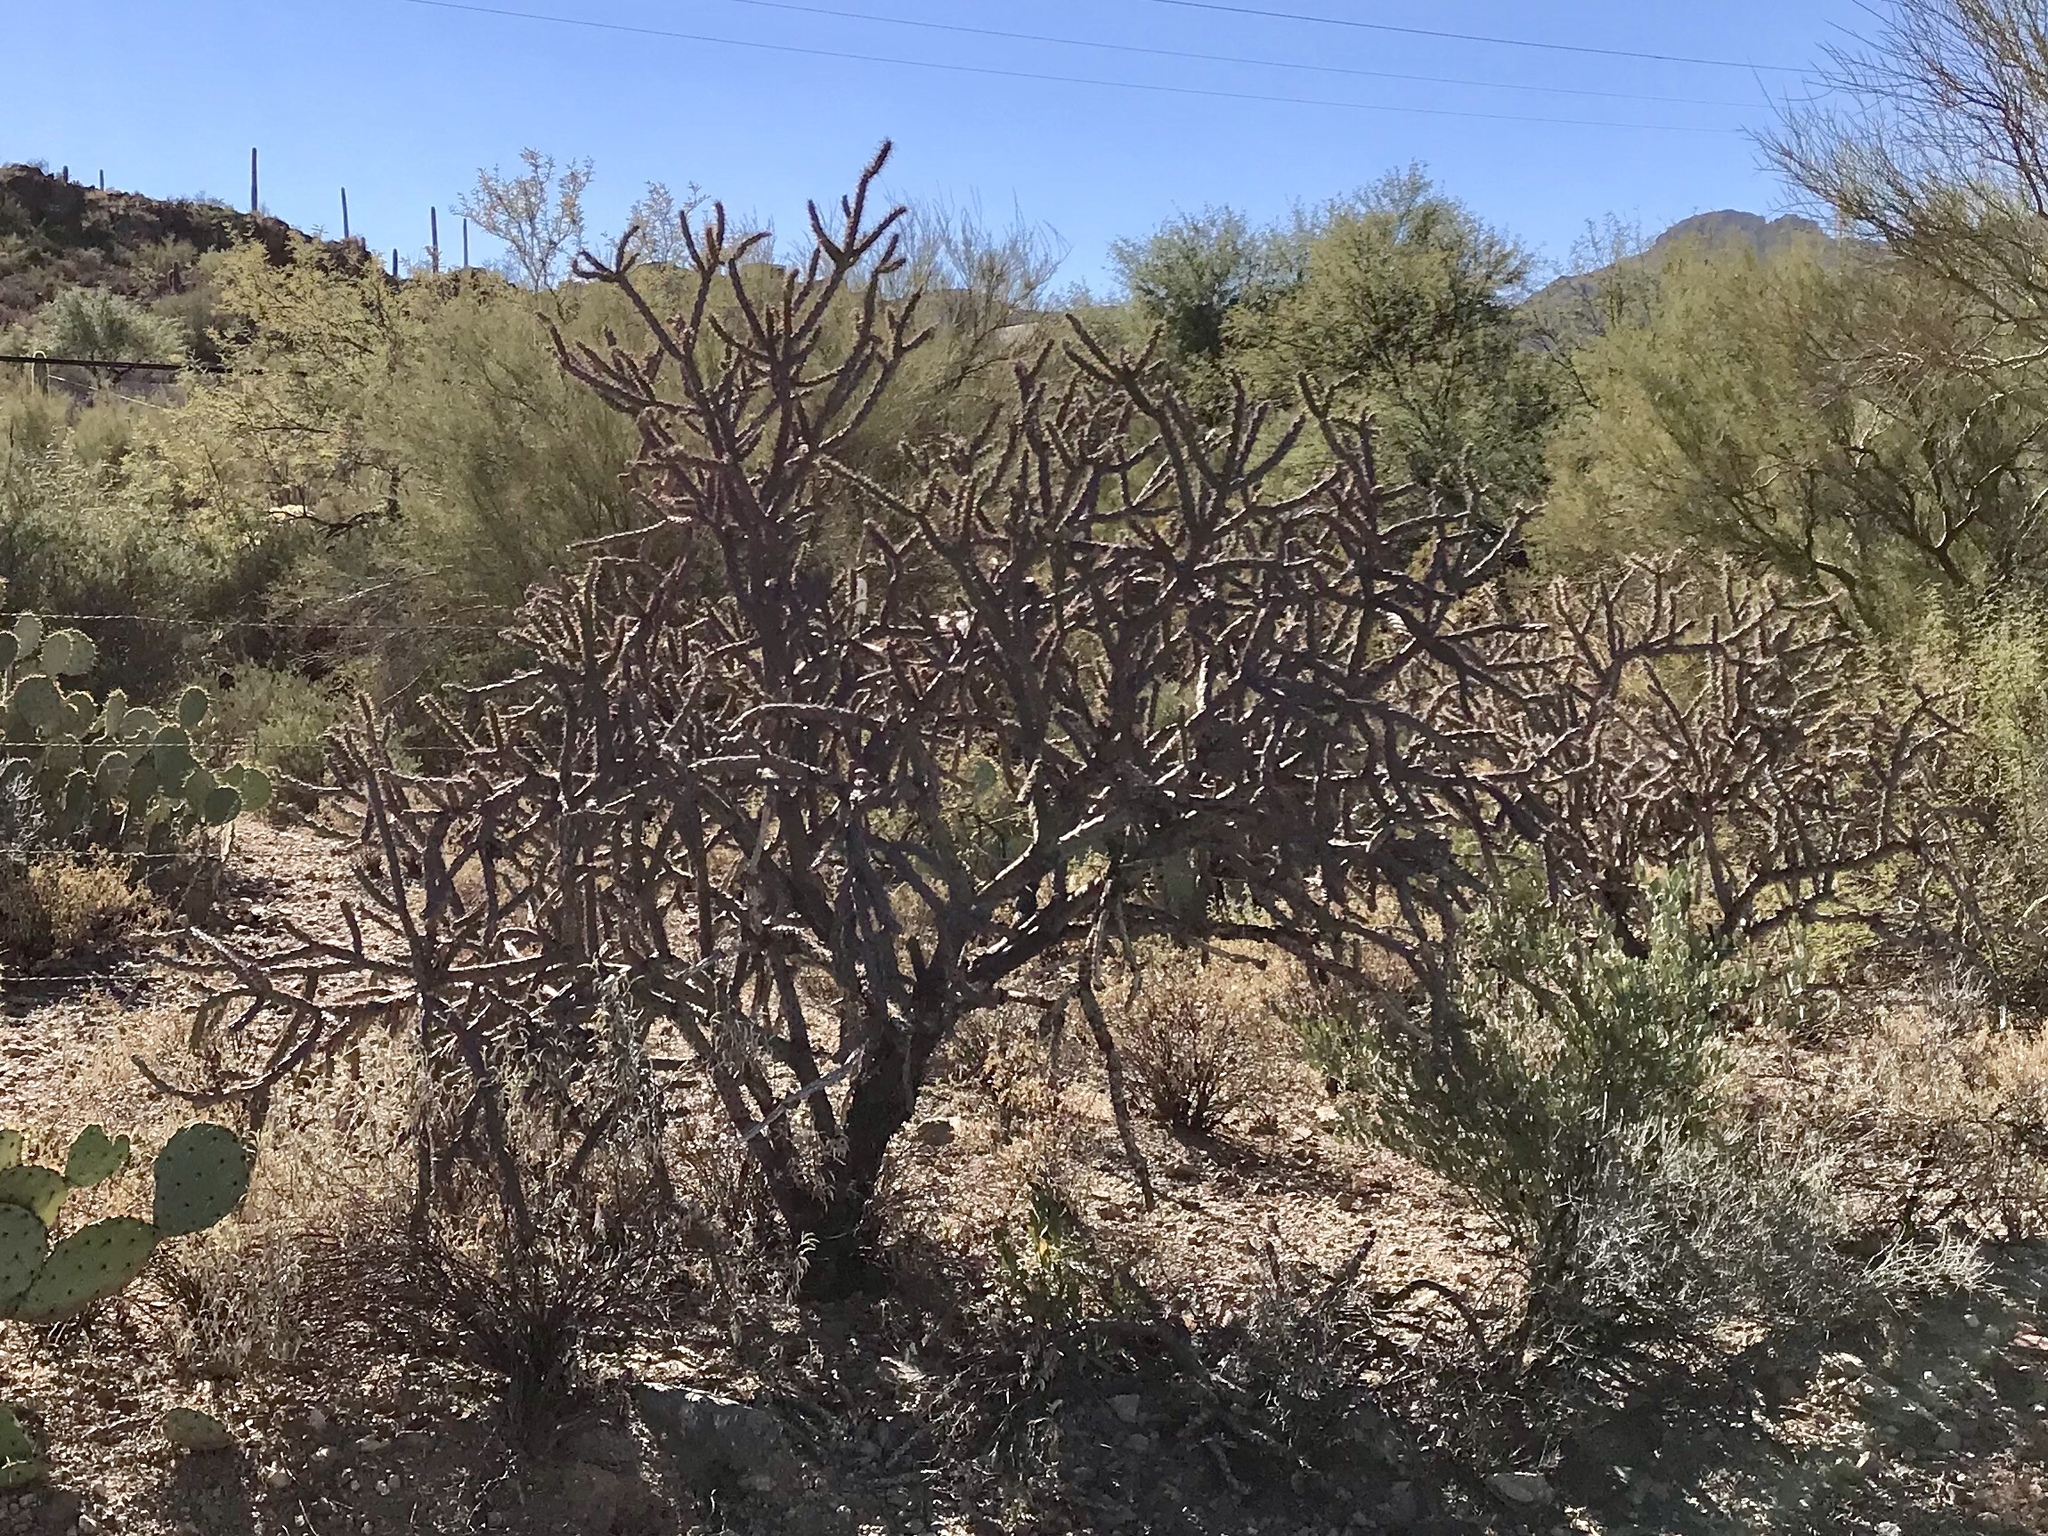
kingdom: Plantae
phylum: Tracheophyta
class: Magnoliopsida
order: Caryophyllales
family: Cactaceae
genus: Cylindropuntia
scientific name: Cylindropuntia thurberi
